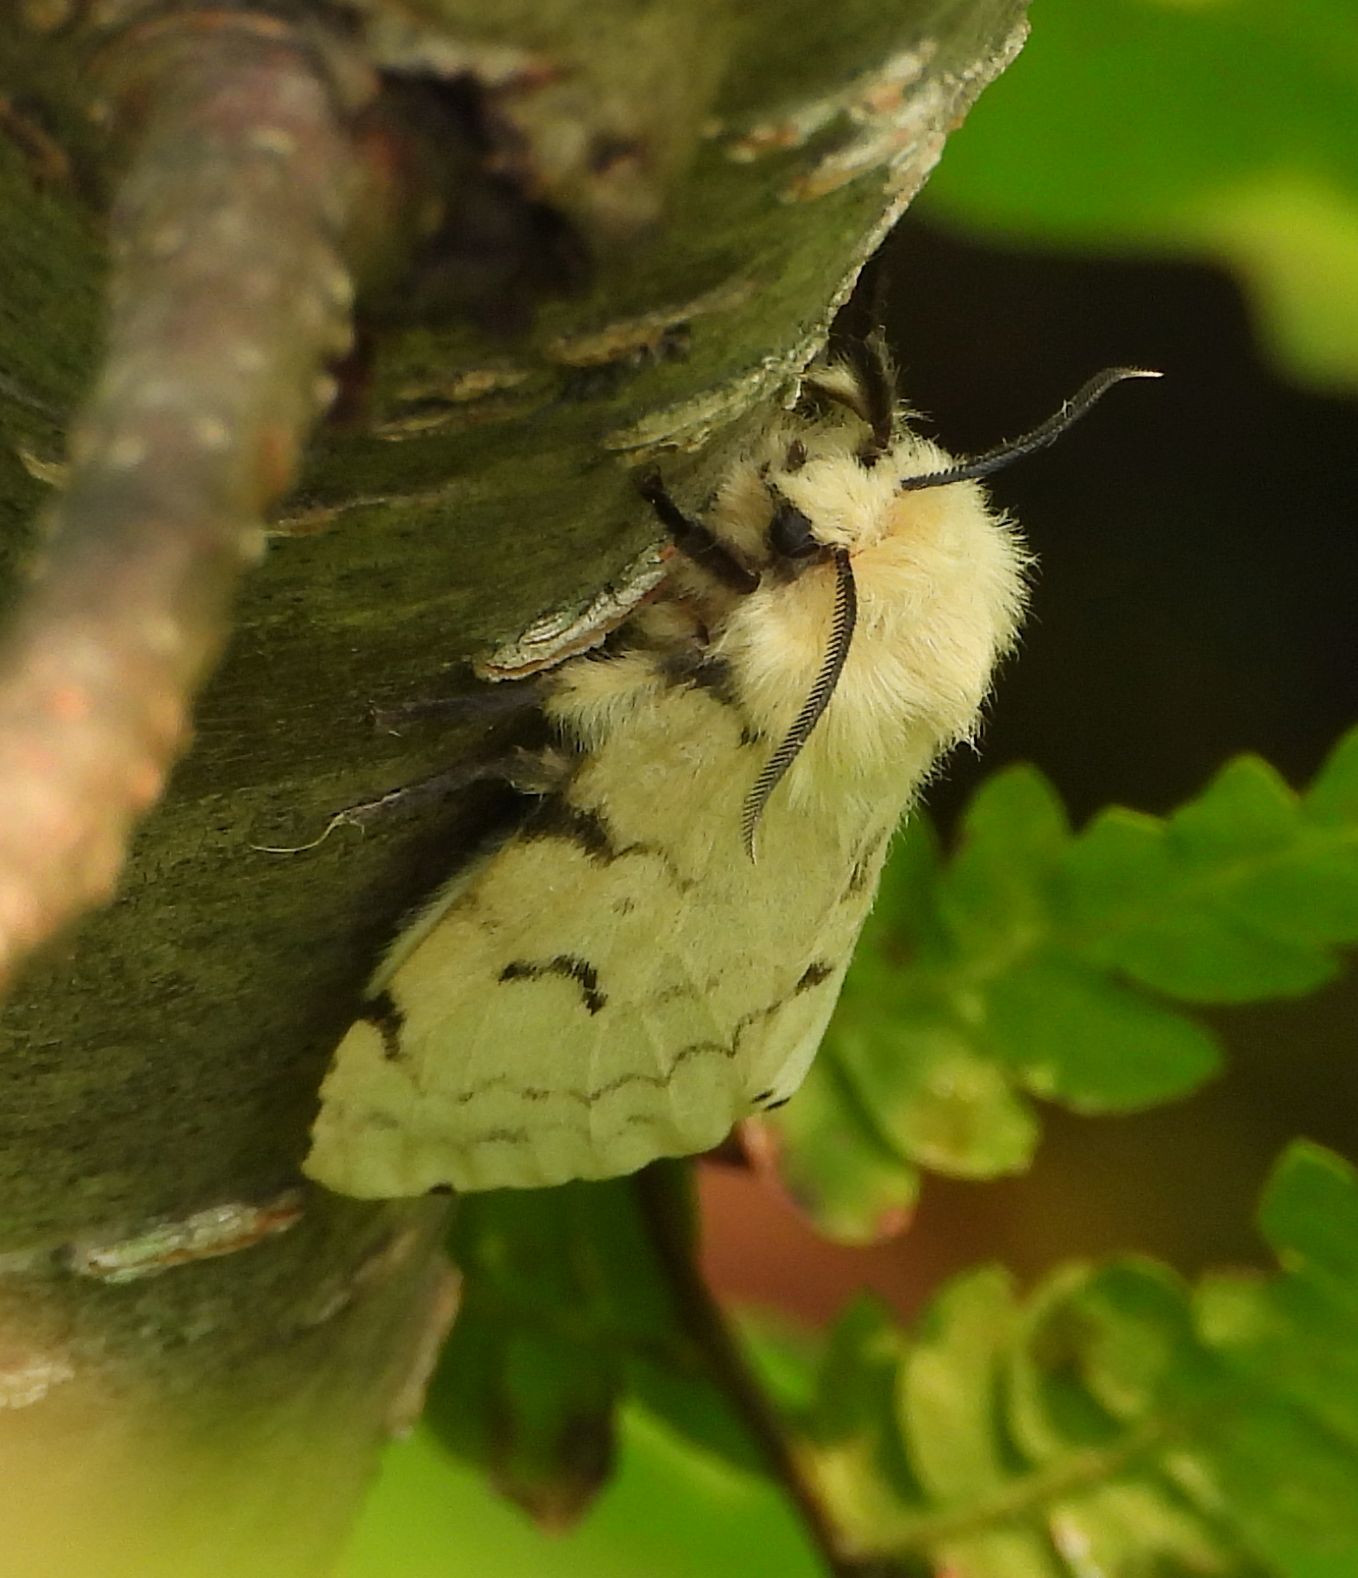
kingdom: Animalia
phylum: Arthropoda
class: Insecta
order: Lepidoptera
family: Erebidae
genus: Lymantria
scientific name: Lymantria dispar
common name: Gypsy moth
